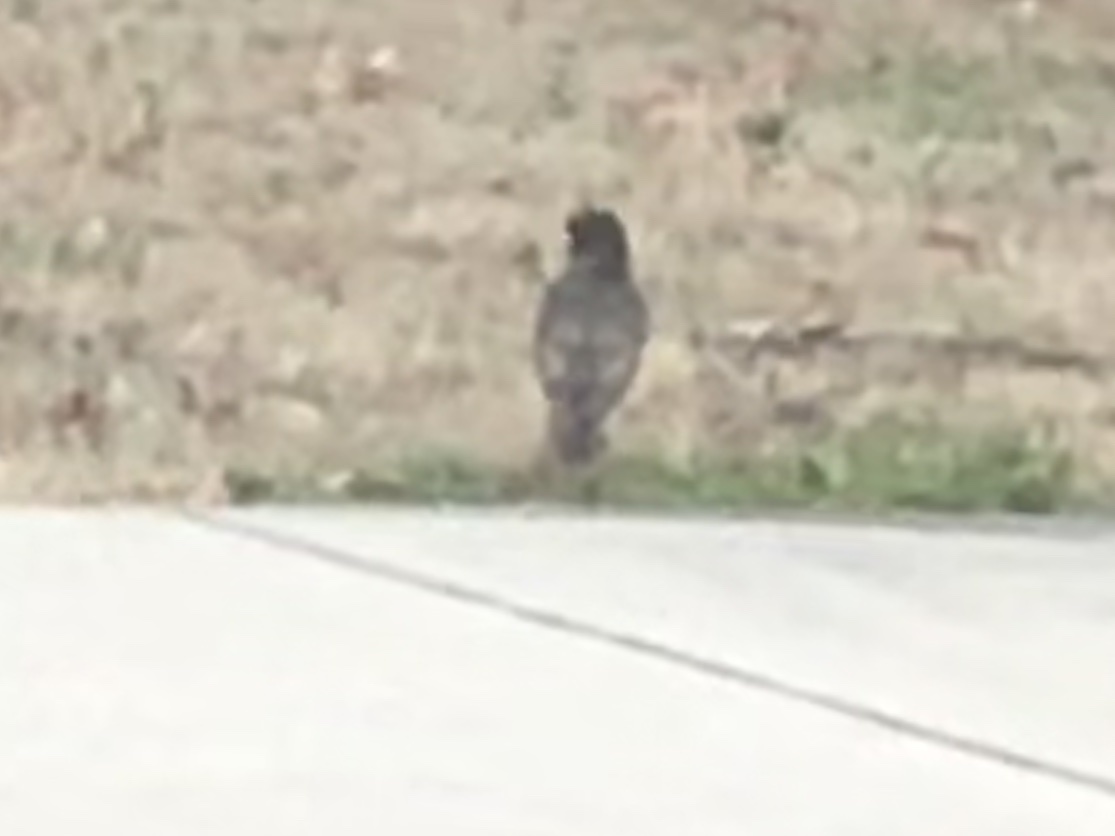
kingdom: Animalia
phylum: Chordata
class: Aves
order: Passeriformes
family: Turdidae
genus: Turdus
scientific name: Turdus migratorius
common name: American robin
